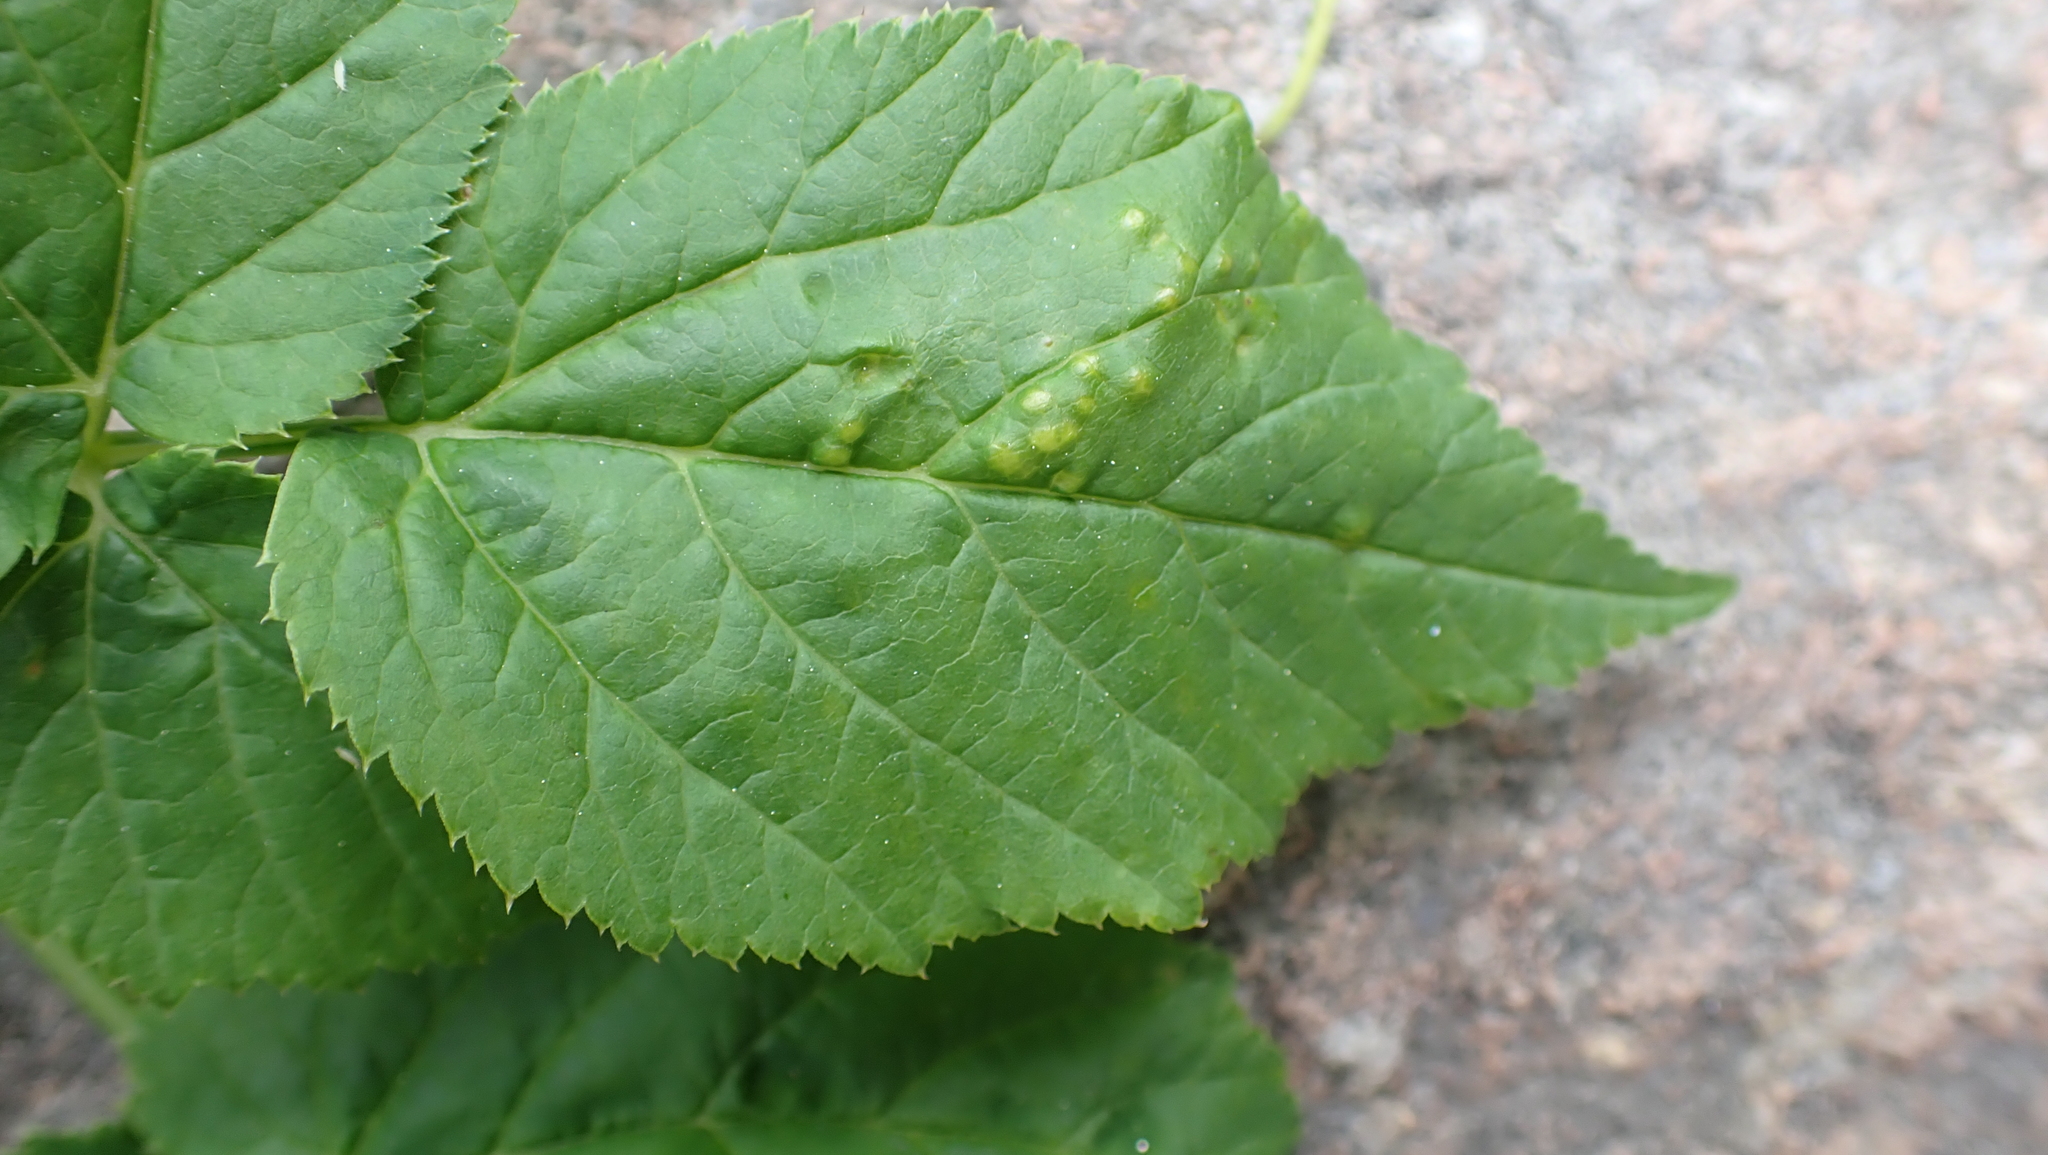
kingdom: Plantae
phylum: Tracheophyta
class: Magnoliopsida
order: Apiales
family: Apiaceae
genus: Aegopodium
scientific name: Aegopodium podagraria
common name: Ground-elder
